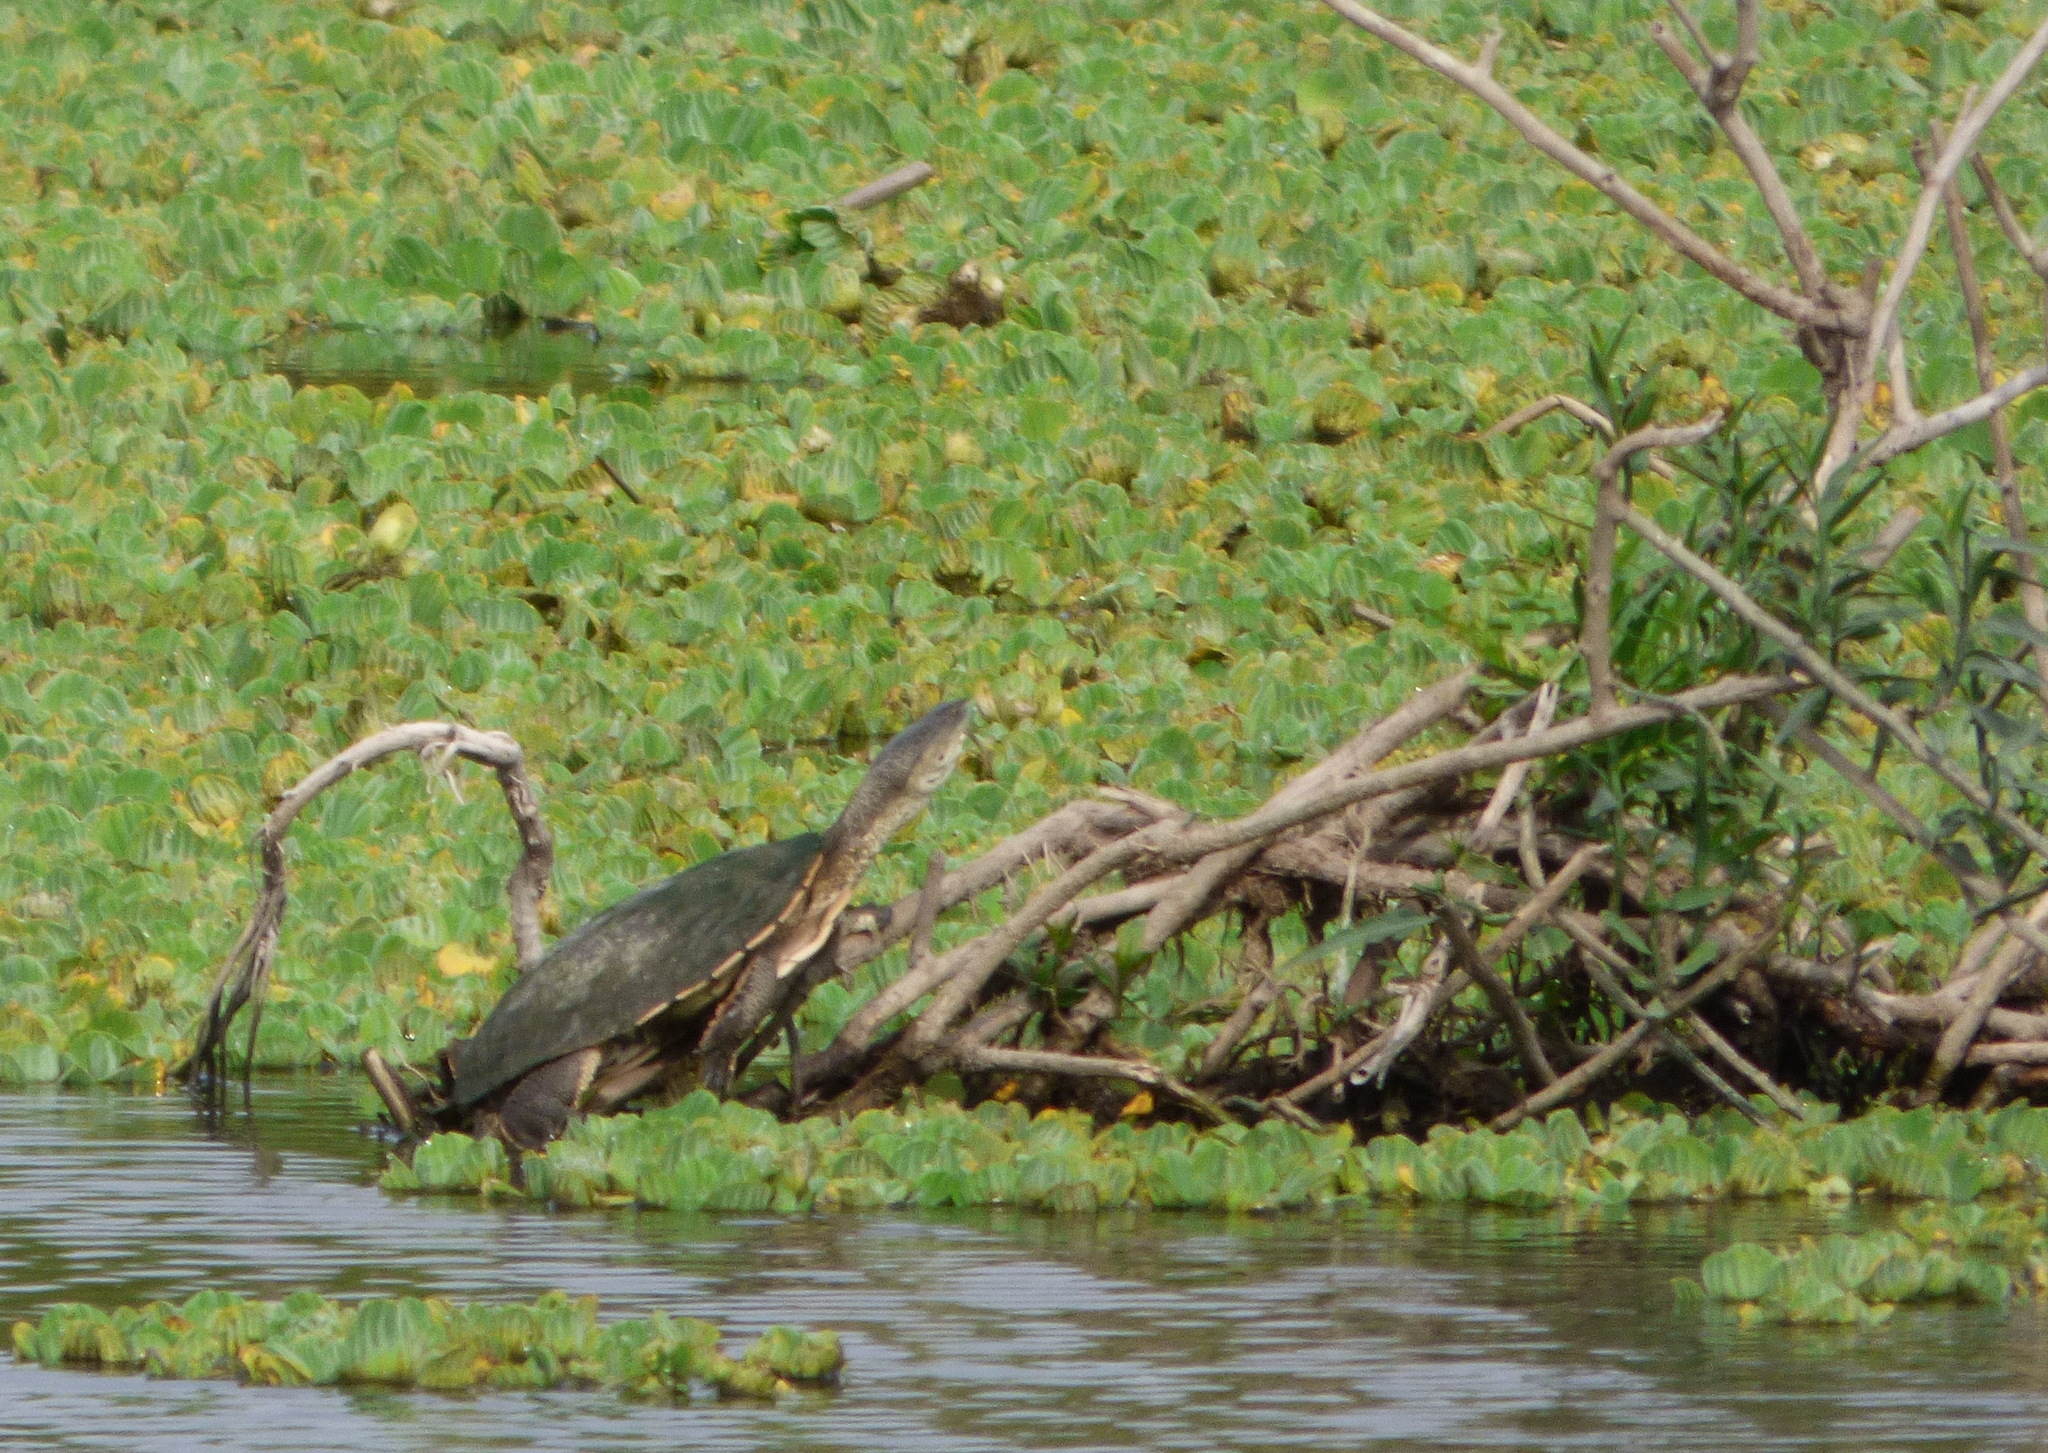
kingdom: Animalia
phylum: Chordata
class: Testudines
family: Chelidae
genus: Phrynops
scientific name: Phrynops hilarii
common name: Side-necked turtle of saint hillaire
